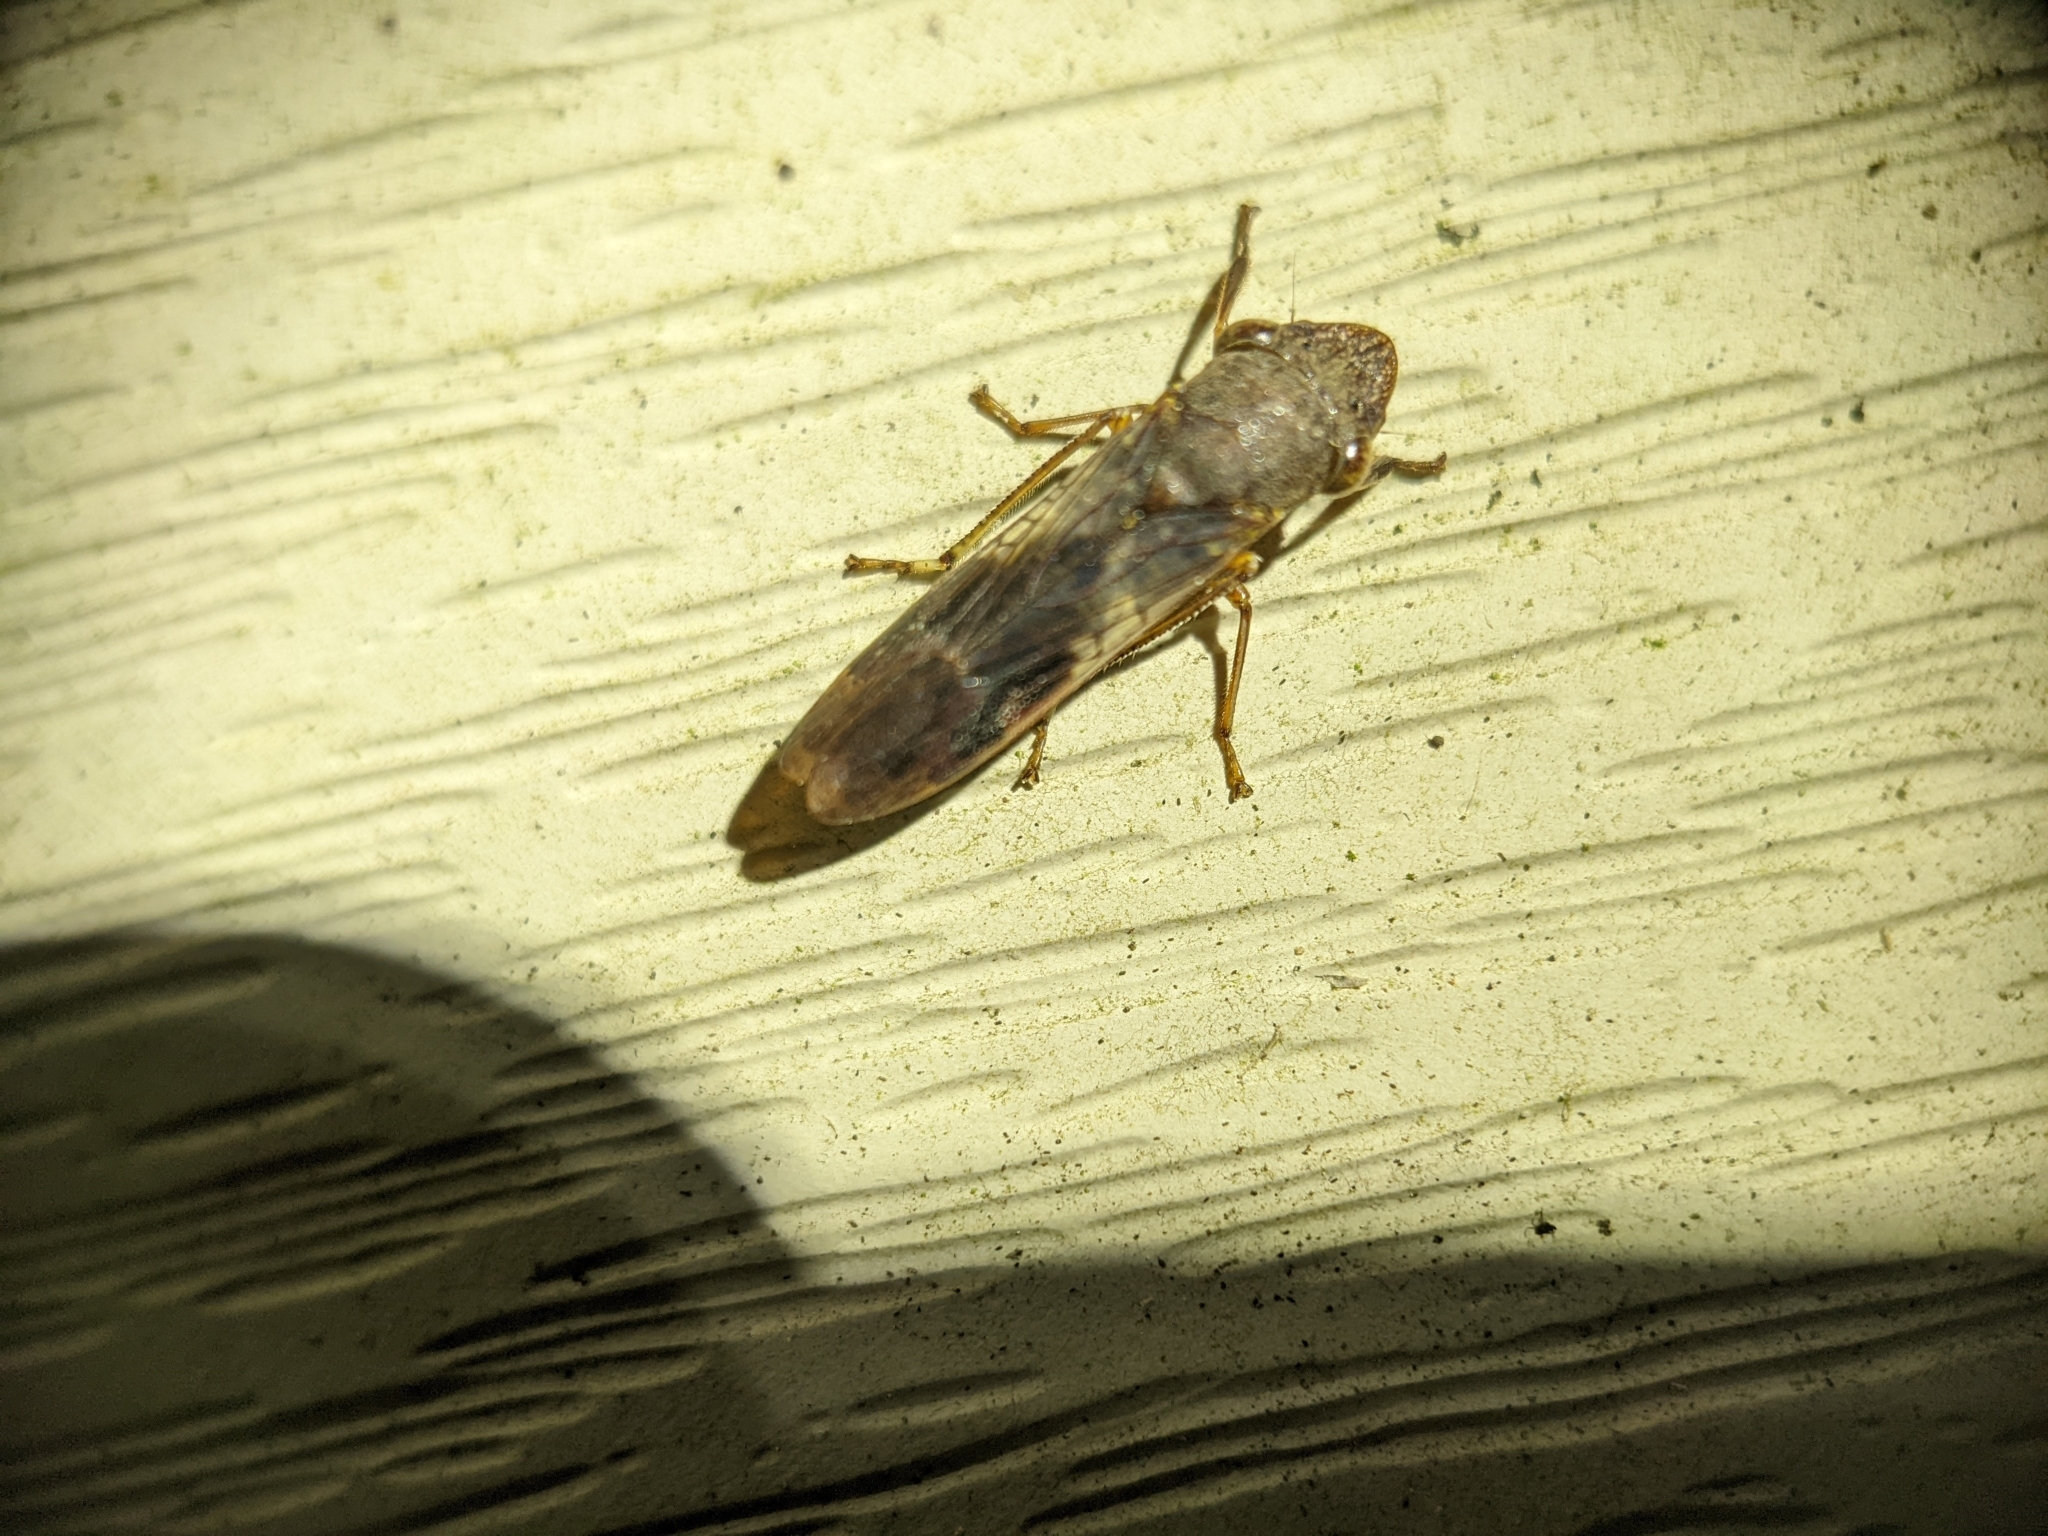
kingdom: Animalia
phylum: Arthropoda
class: Insecta
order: Hemiptera
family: Cicadellidae
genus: Homalodisca
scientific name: Homalodisca vitripennis
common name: Glassy-winged sharpshooter
